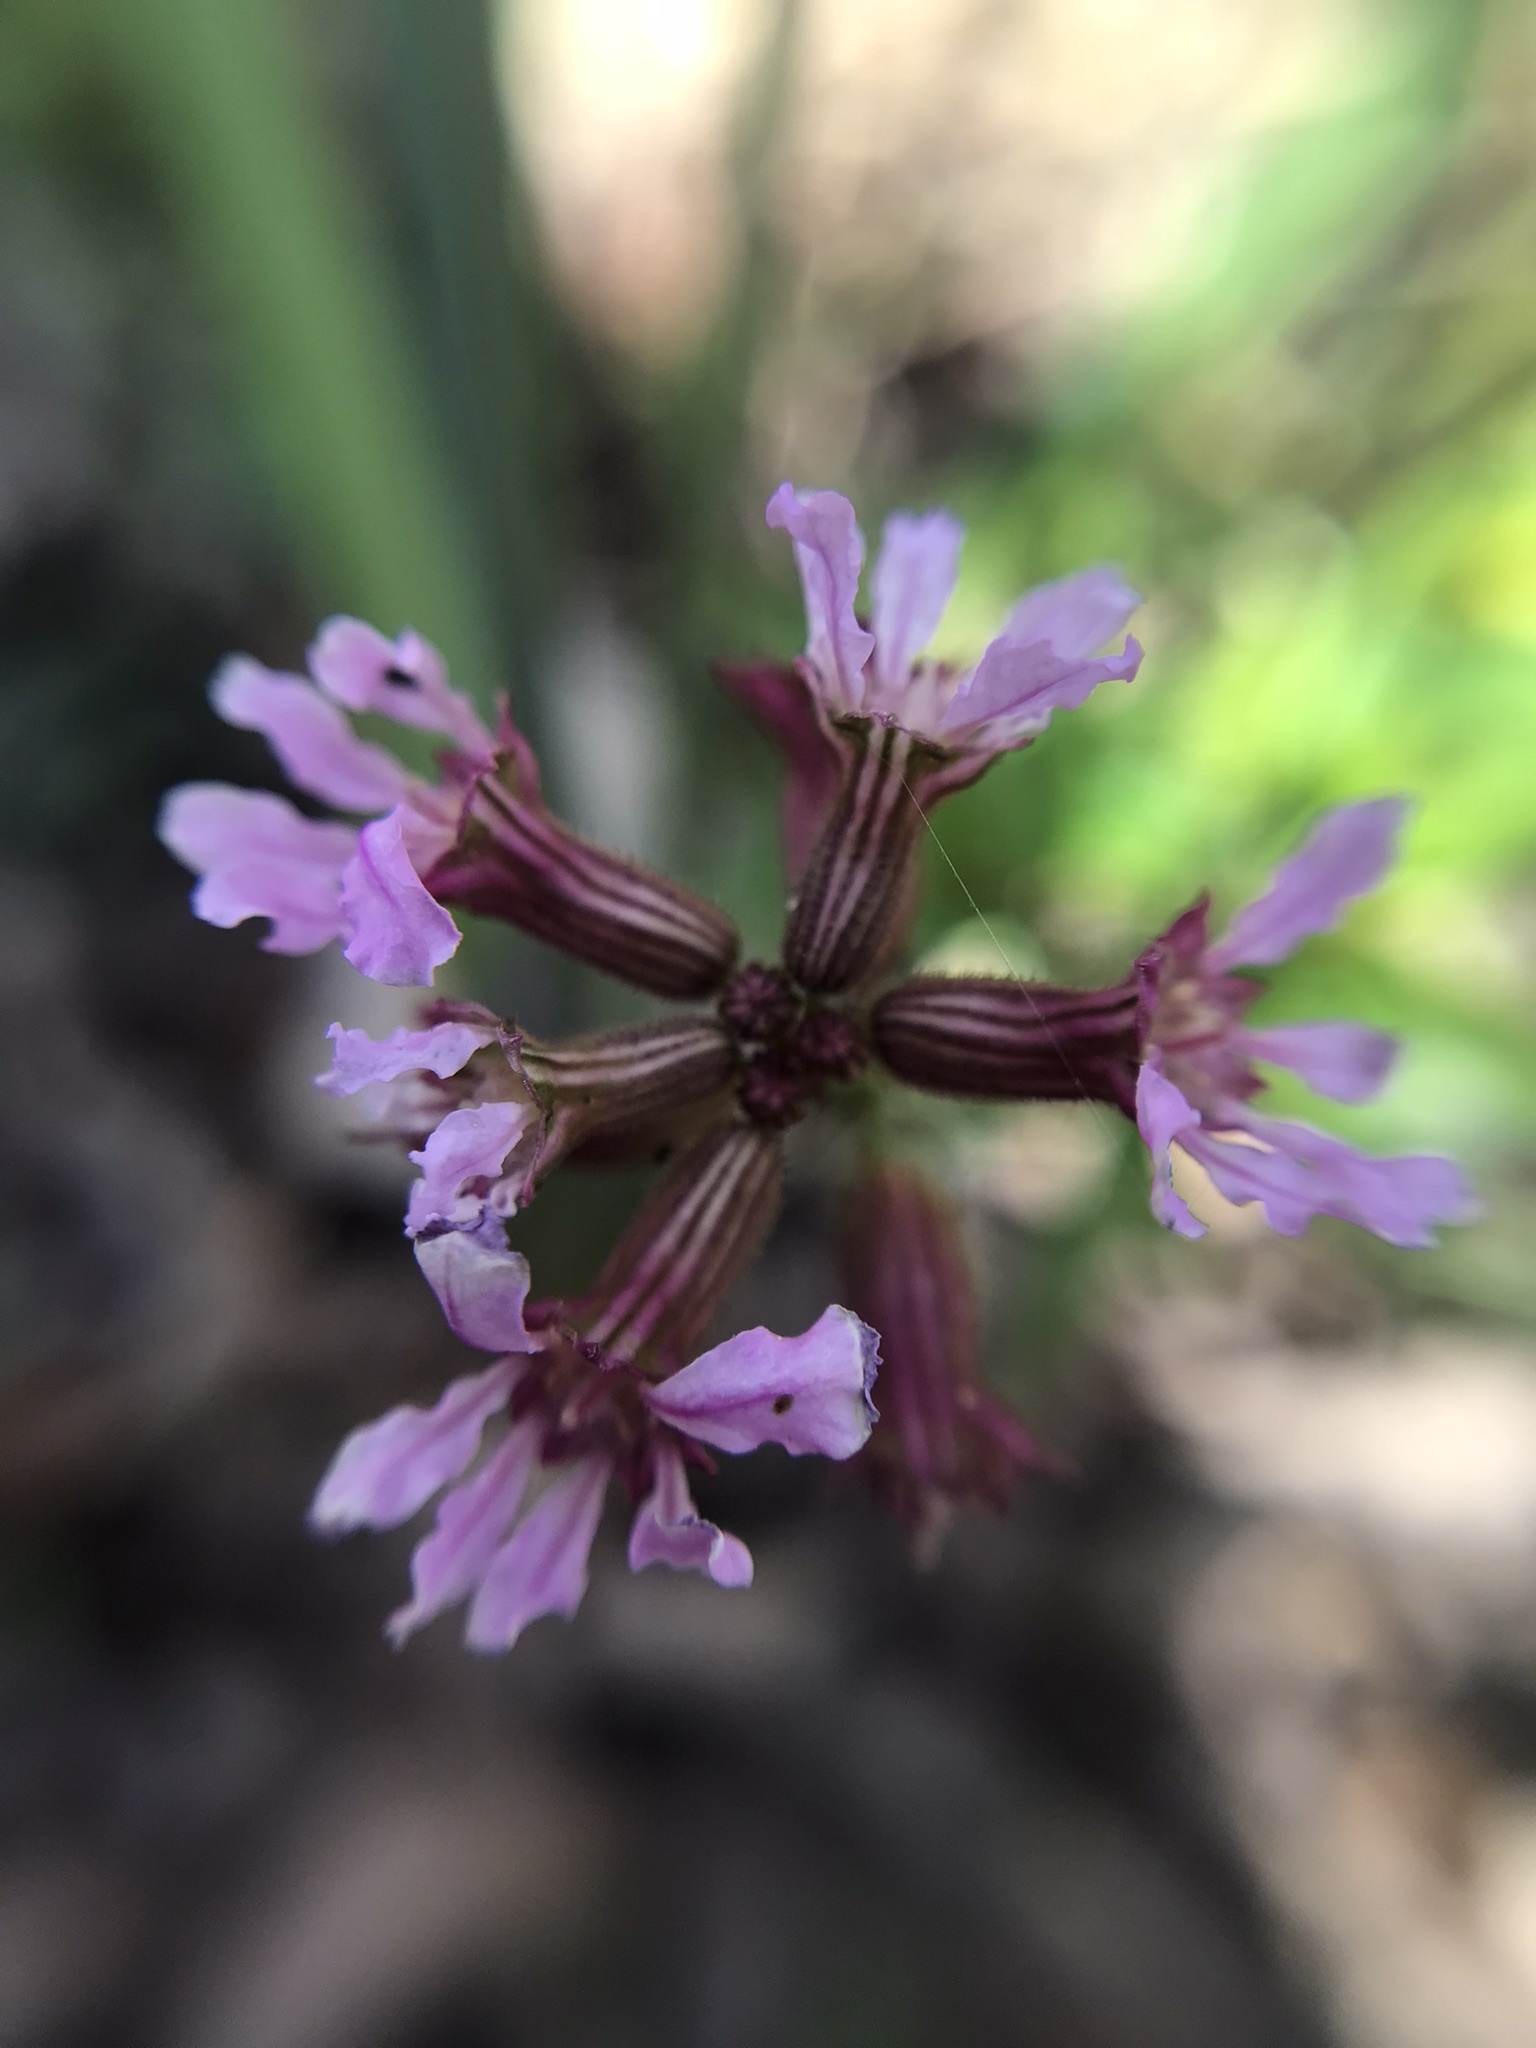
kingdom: Plantae
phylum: Tracheophyta
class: Magnoliopsida
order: Myrtales
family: Lythraceae
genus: Cuphea
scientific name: Cuphea fruticosa
